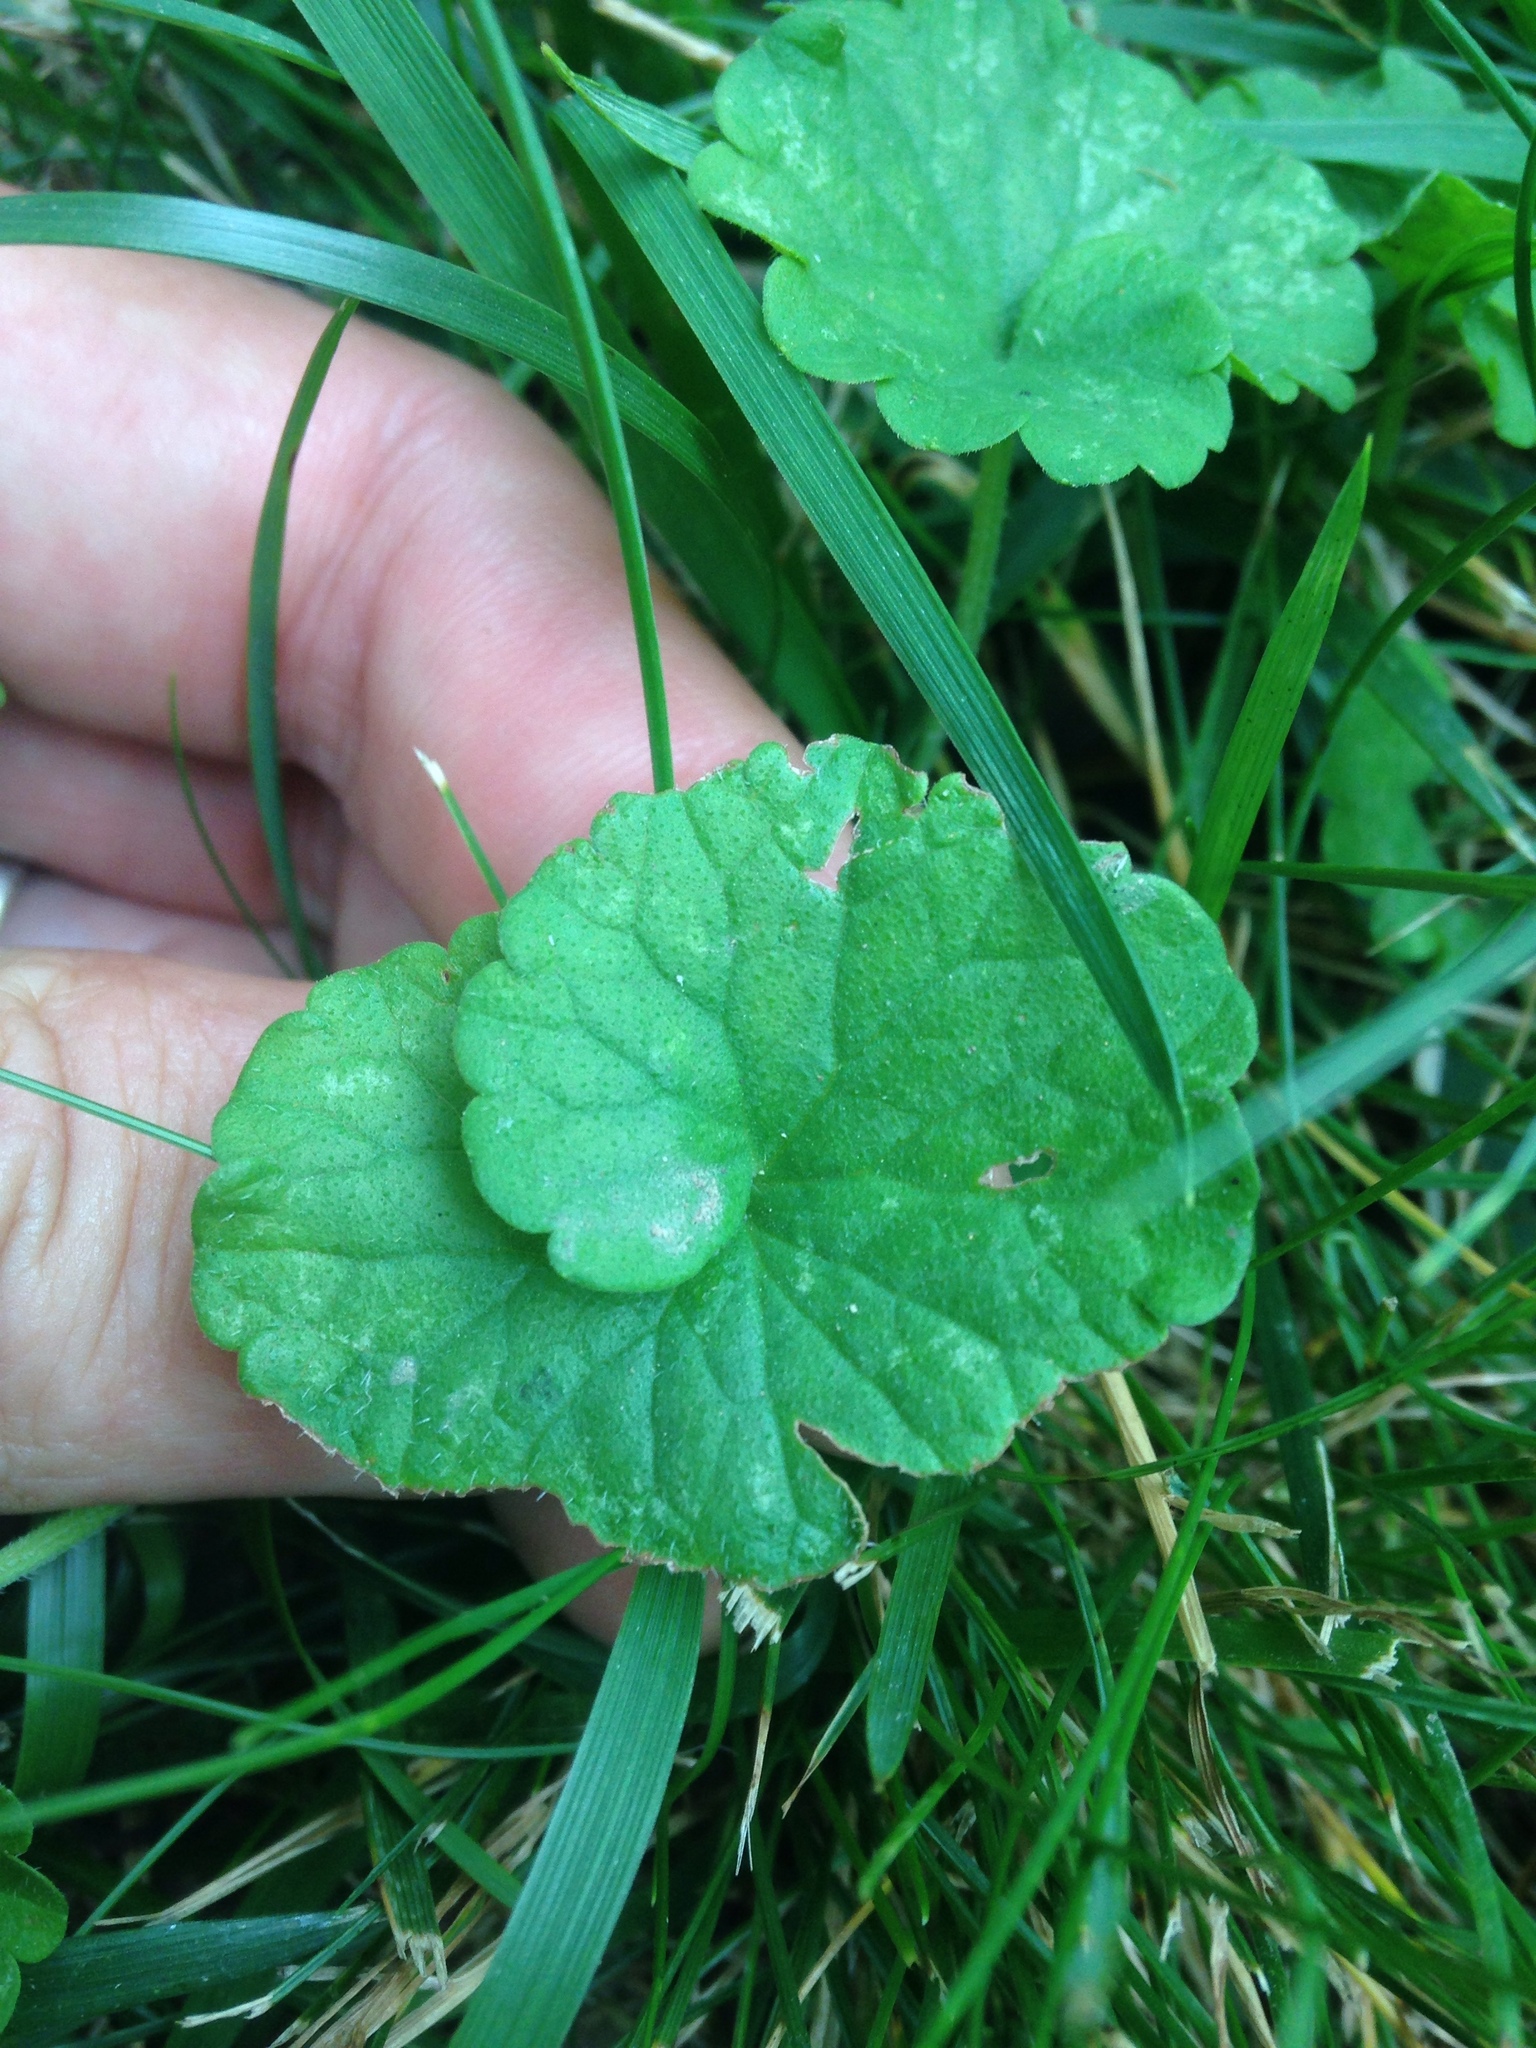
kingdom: Plantae
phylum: Tracheophyta
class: Magnoliopsida
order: Lamiales
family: Lamiaceae
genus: Glechoma
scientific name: Glechoma hederacea
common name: Ground ivy
